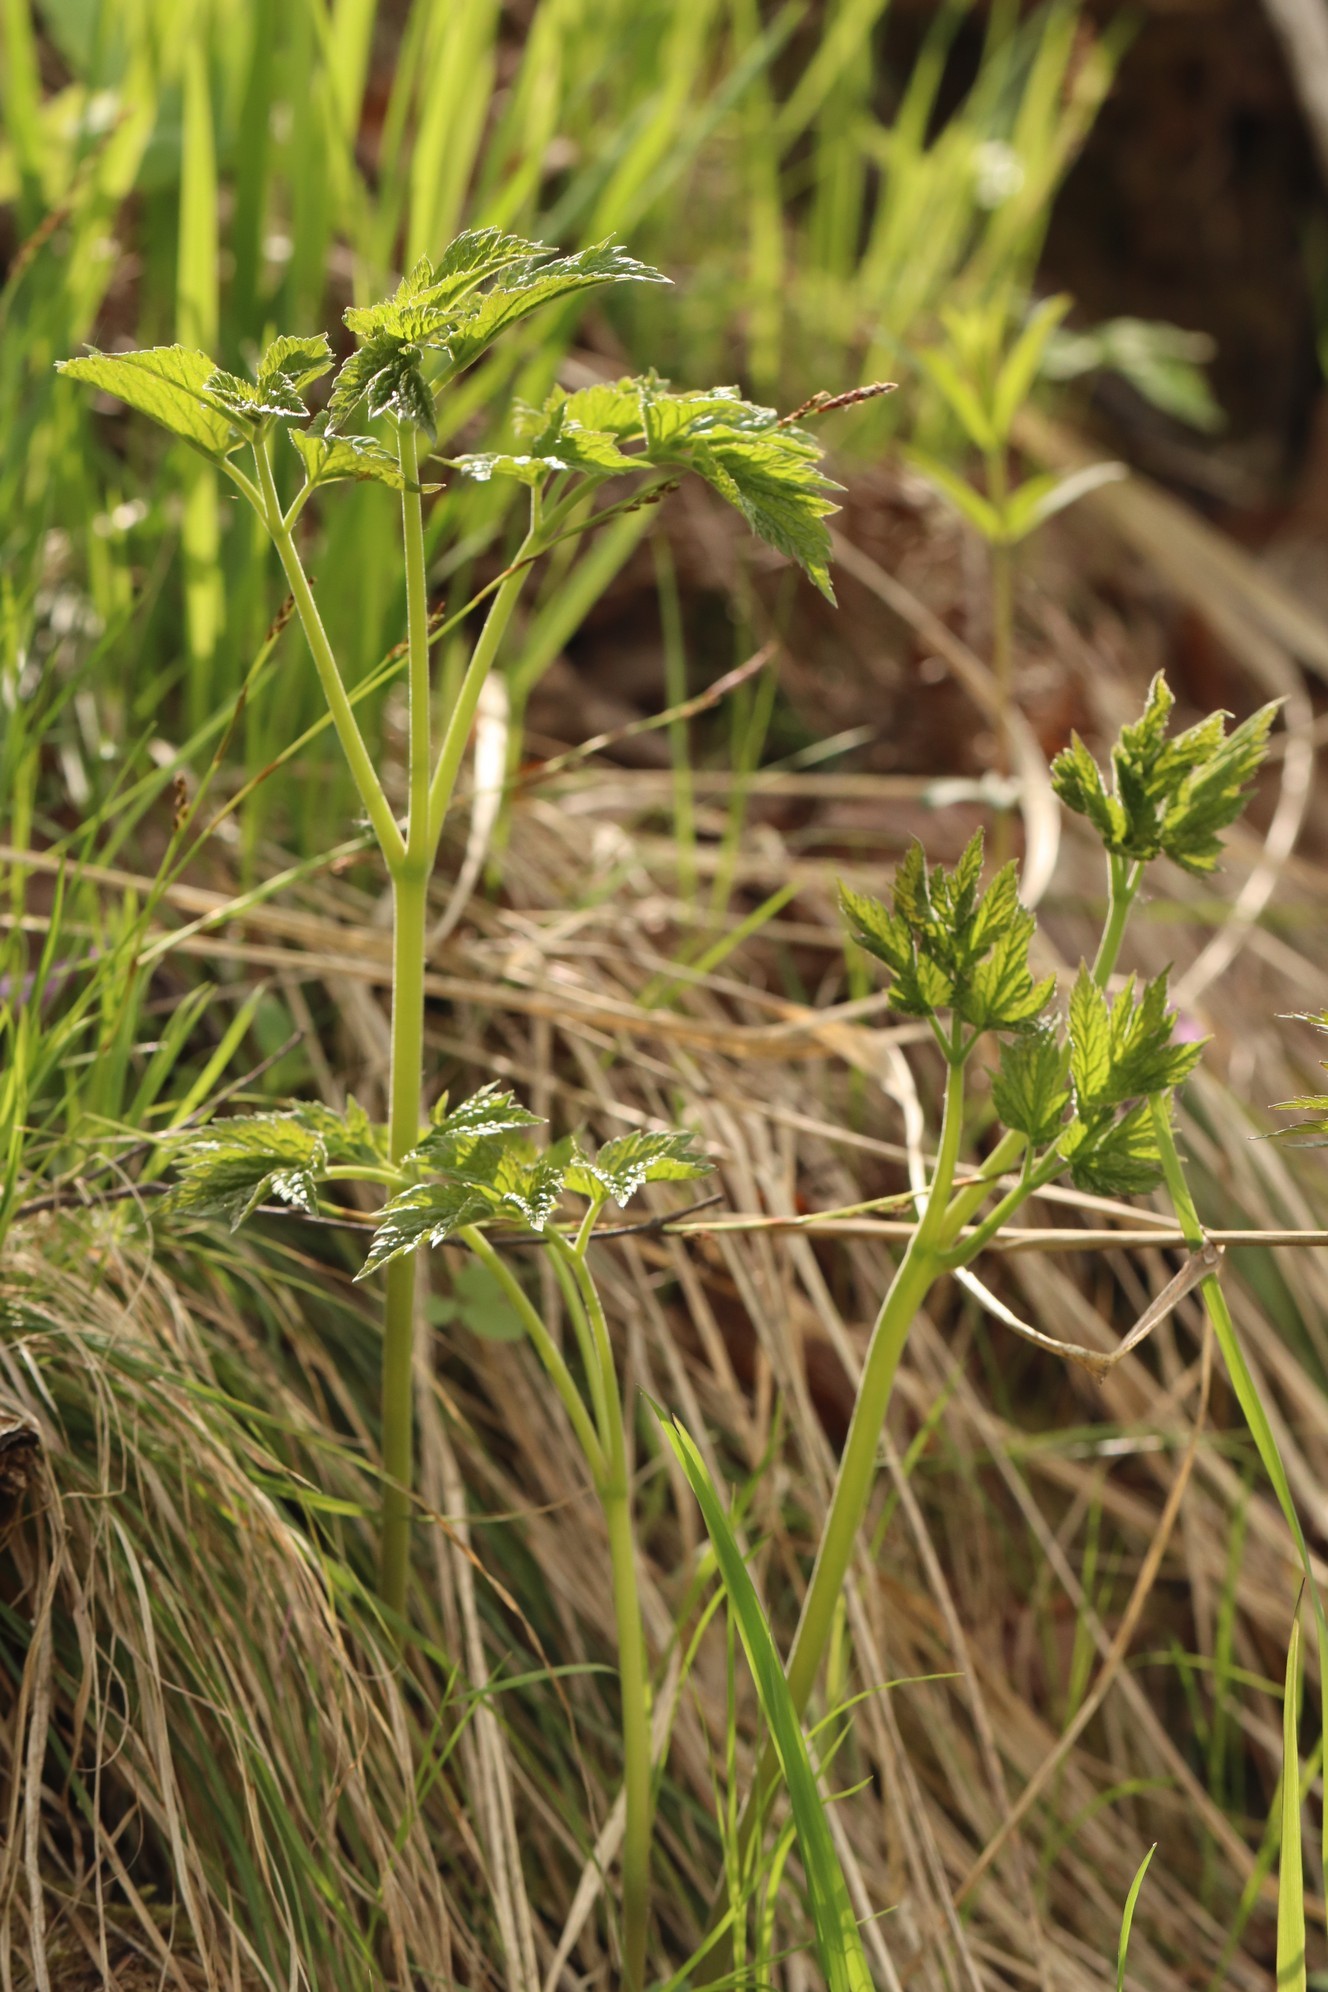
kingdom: Plantae
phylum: Tracheophyta
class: Magnoliopsida
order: Ranunculales
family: Ranunculaceae
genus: Actaea
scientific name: Actaea cimicifuga
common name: Chinese cimicifuga
